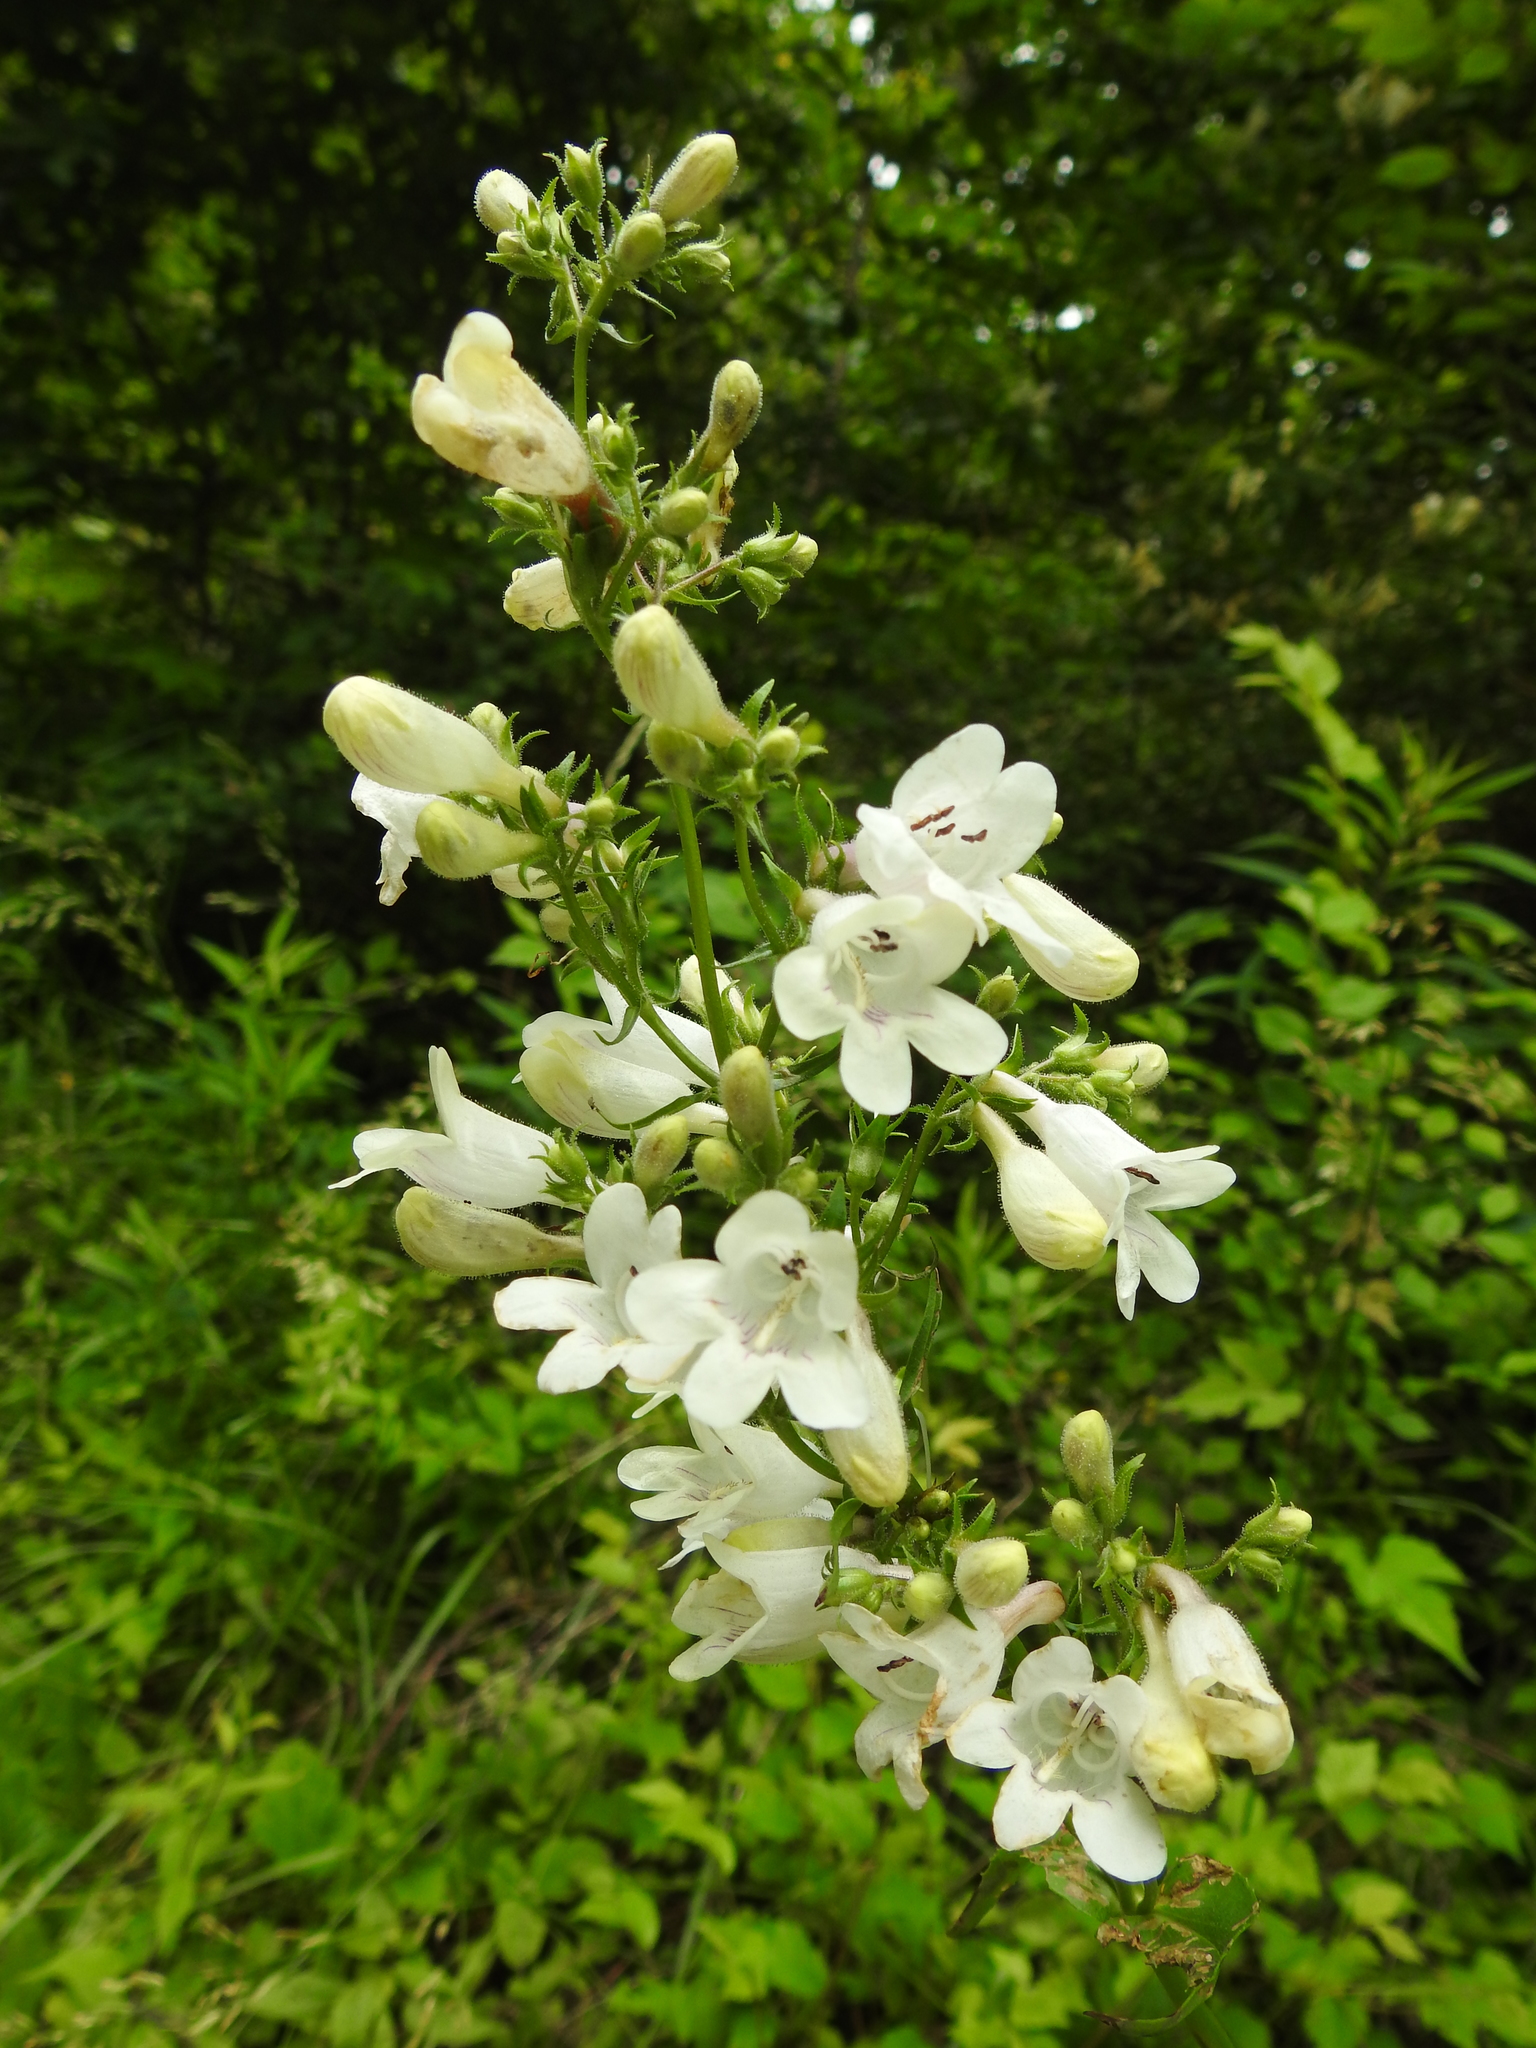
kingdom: Plantae
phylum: Tracheophyta
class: Magnoliopsida
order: Lamiales
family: Plantaginaceae
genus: Penstemon
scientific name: Penstemon digitalis
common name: Foxglove beardtongue
